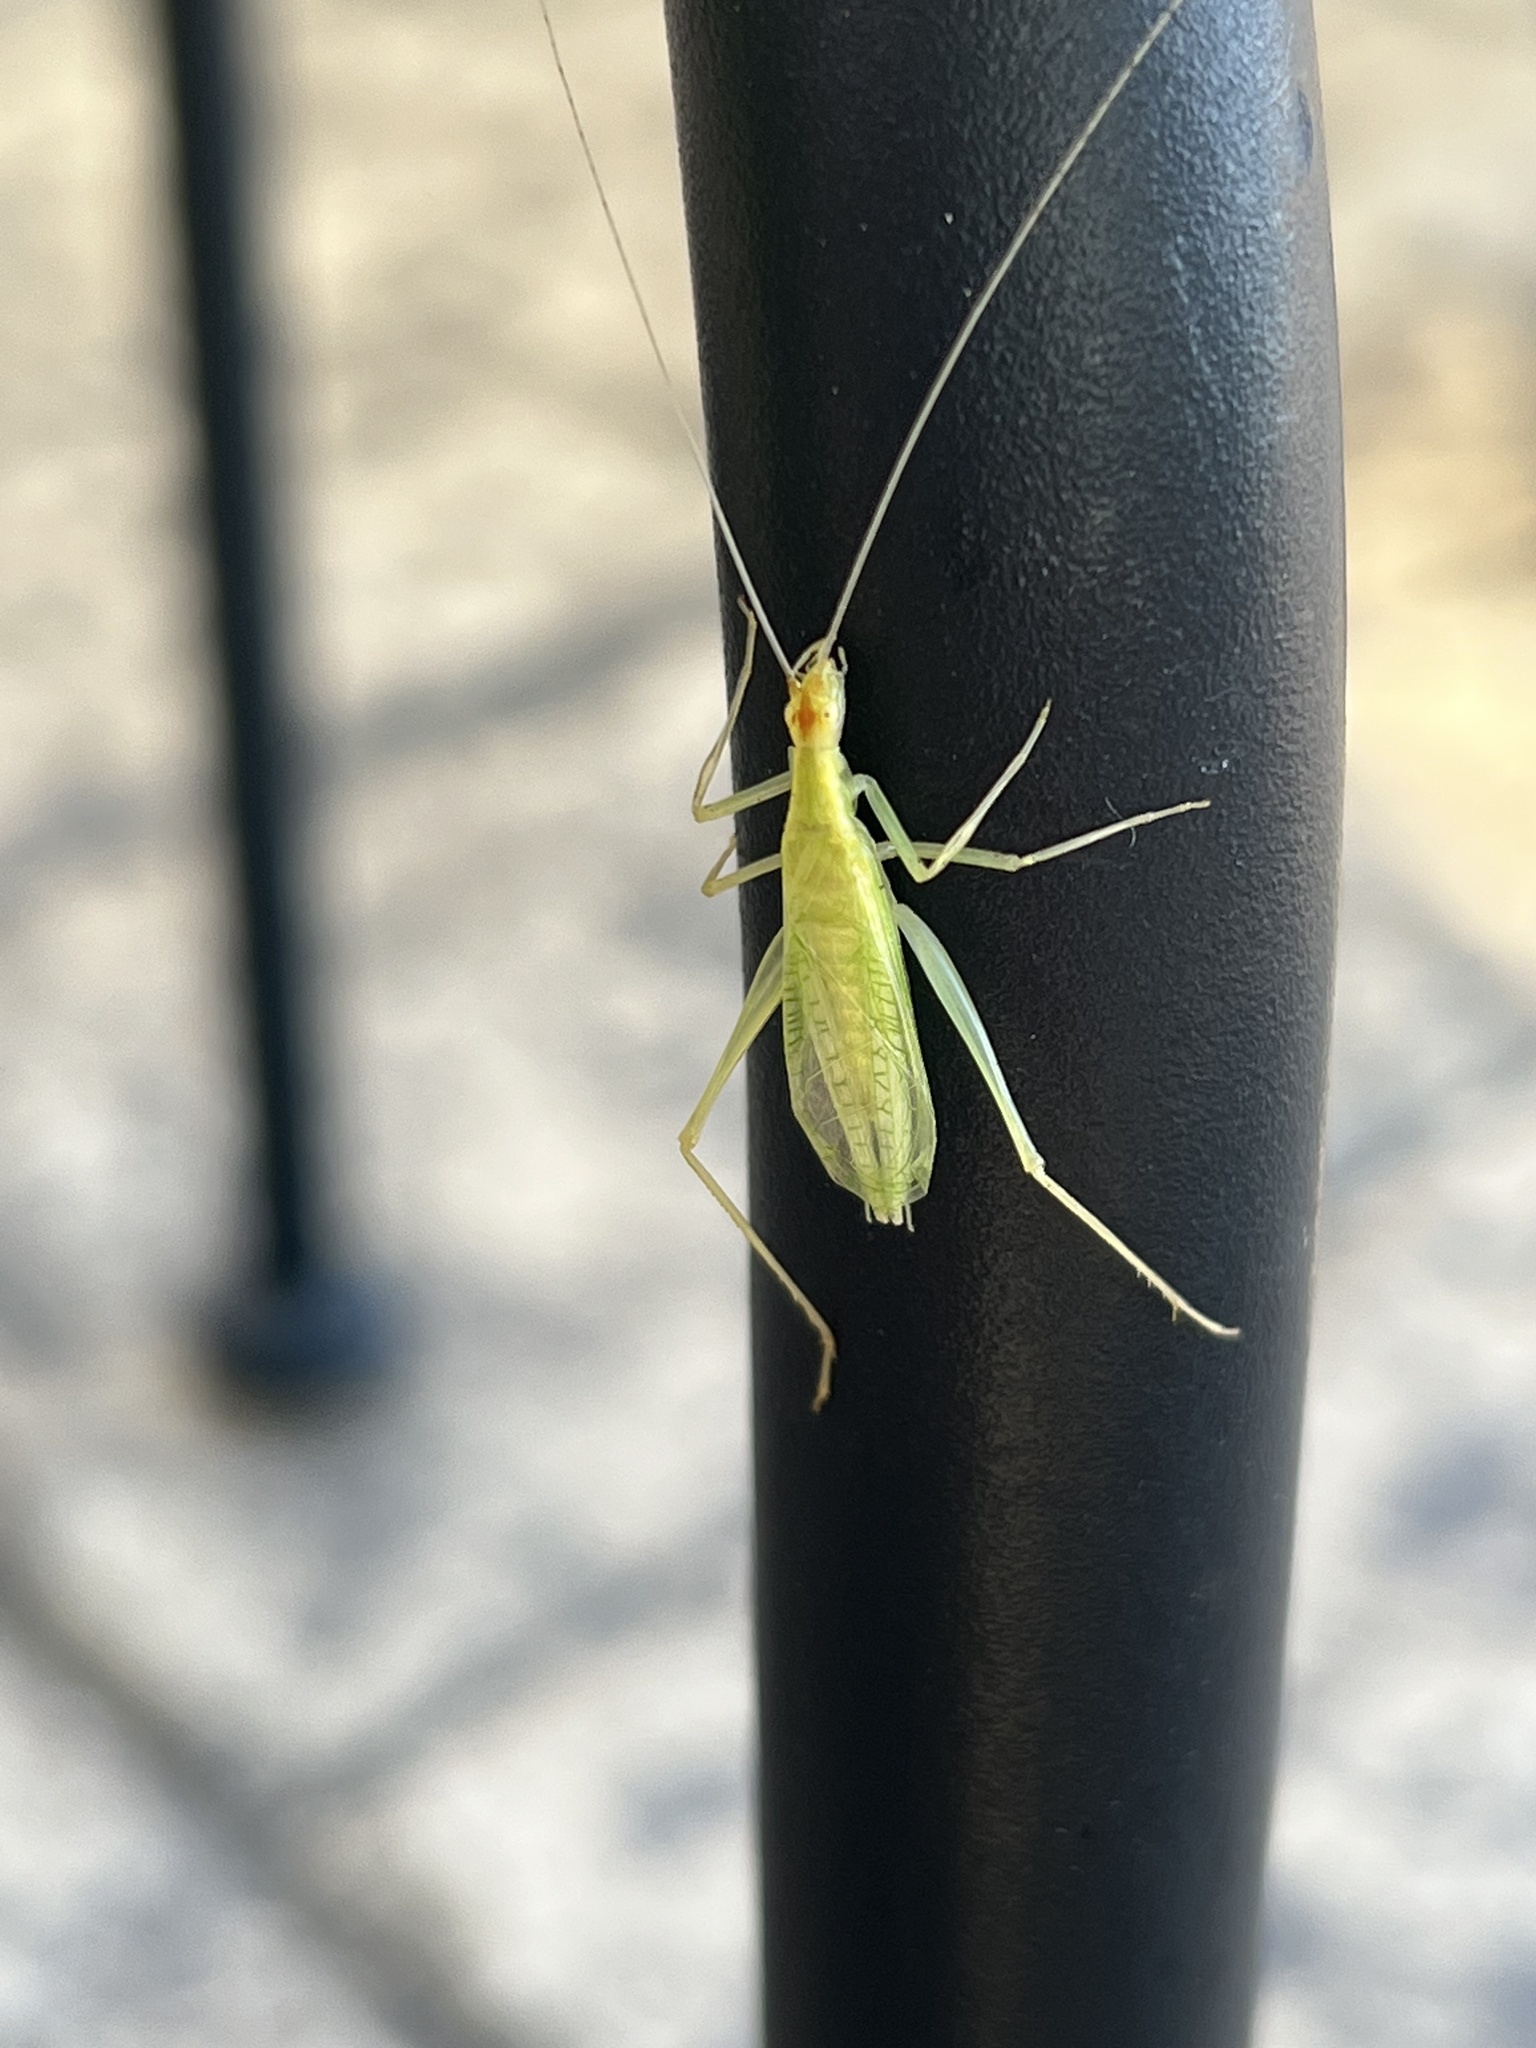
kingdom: Animalia
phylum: Arthropoda
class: Insecta
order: Orthoptera
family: Gryllidae
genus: Oecanthus
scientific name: Oecanthus niveus
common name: Narrow-winged tree cricket
